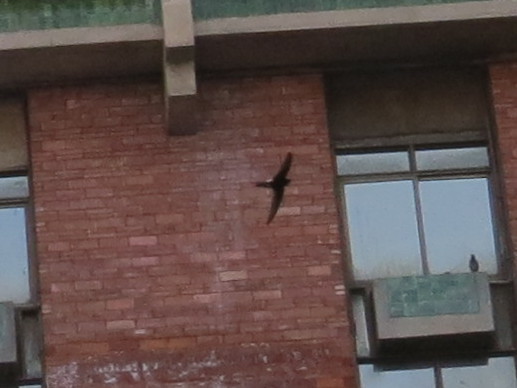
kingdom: Animalia
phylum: Chordata
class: Aves
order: Apodiformes
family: Apodidae
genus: Apus
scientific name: Apus affinis
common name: Little swift
